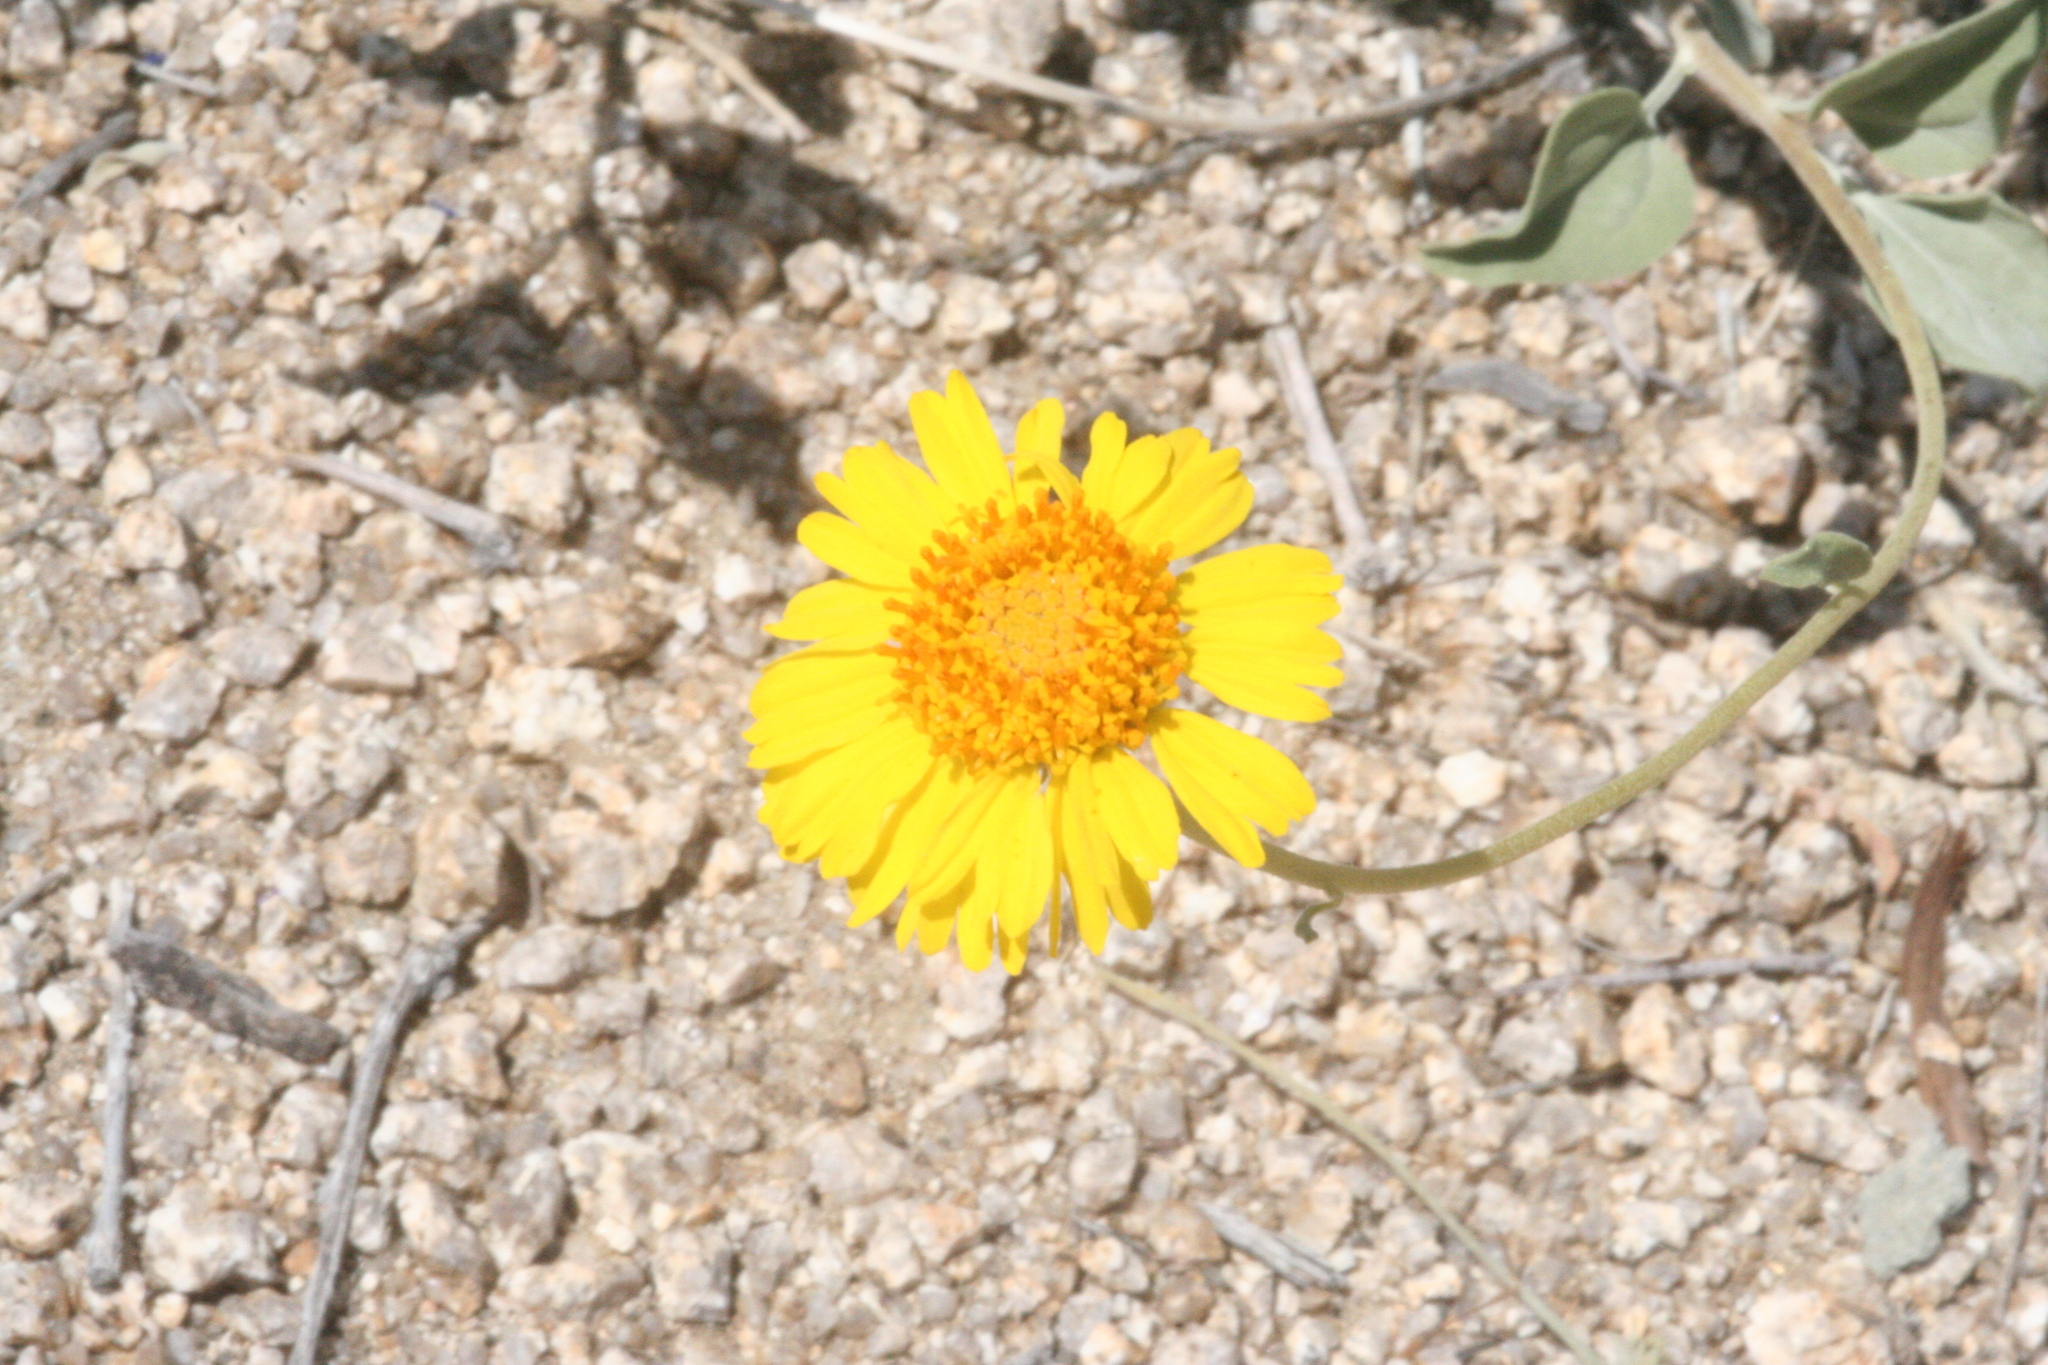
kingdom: Plantae
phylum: Tracheophyta
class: Magnoliopsida
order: Asterales
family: Asteraceae
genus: Encelia
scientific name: Encelia actoni
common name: Acton encelia
